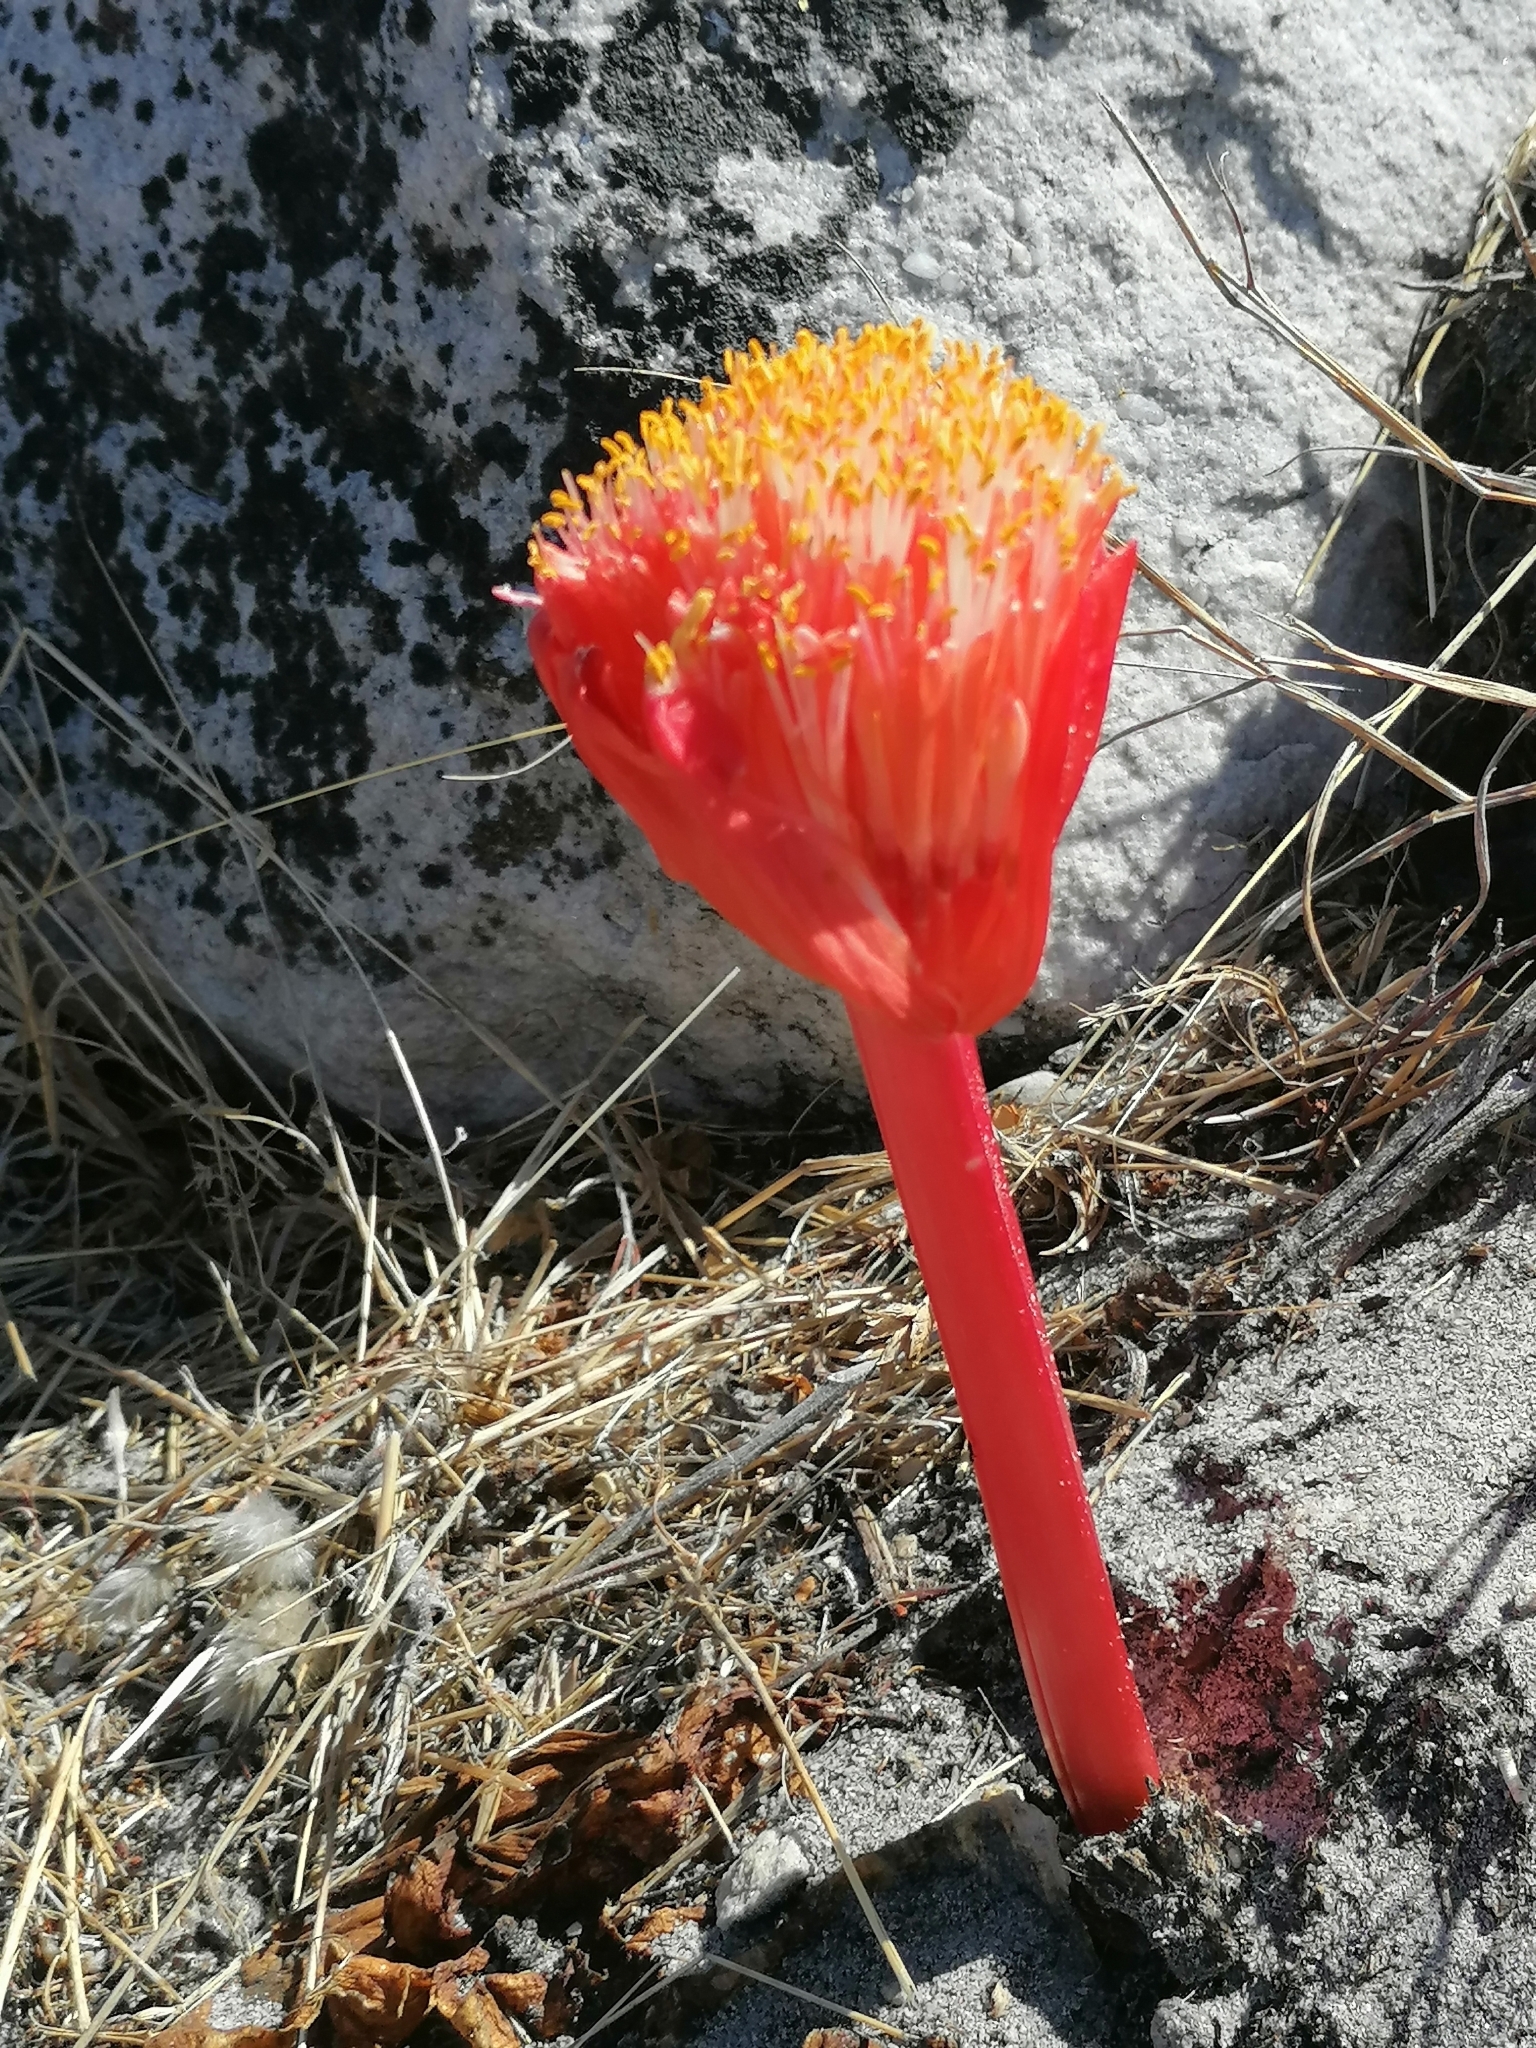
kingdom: Plantae
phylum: Tracheophyta
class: Liliopsida
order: Asparagales
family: Amaryllidaceae
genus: Haemanthus
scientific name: Haemanthus sanguineus
